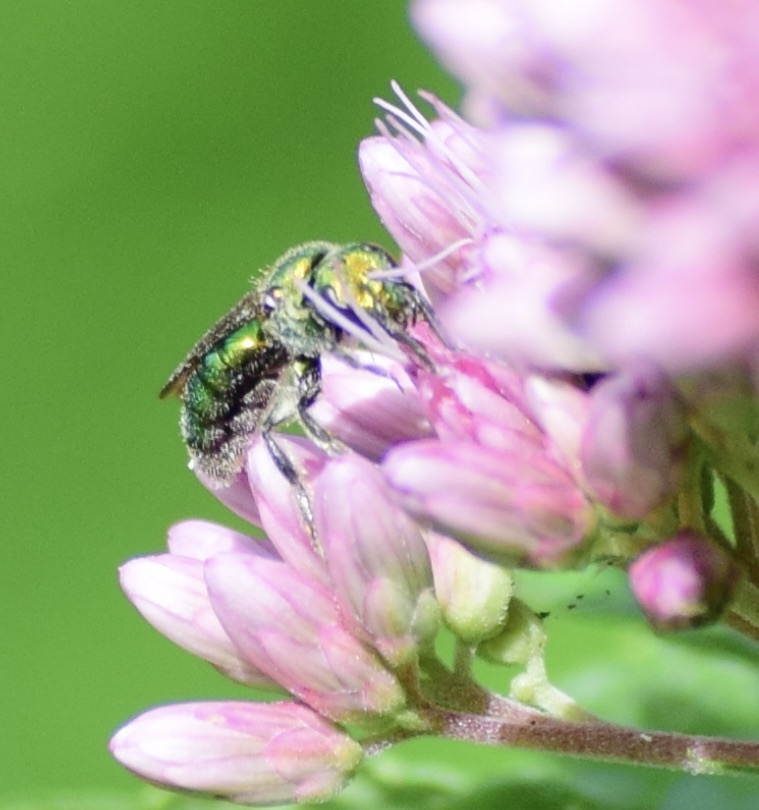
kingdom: Animalia
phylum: Arthropoda
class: Insecta
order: Hymenoptera
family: Halictidae
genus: Augochlora
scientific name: Augochlora pura
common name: Pure green sweat bee
